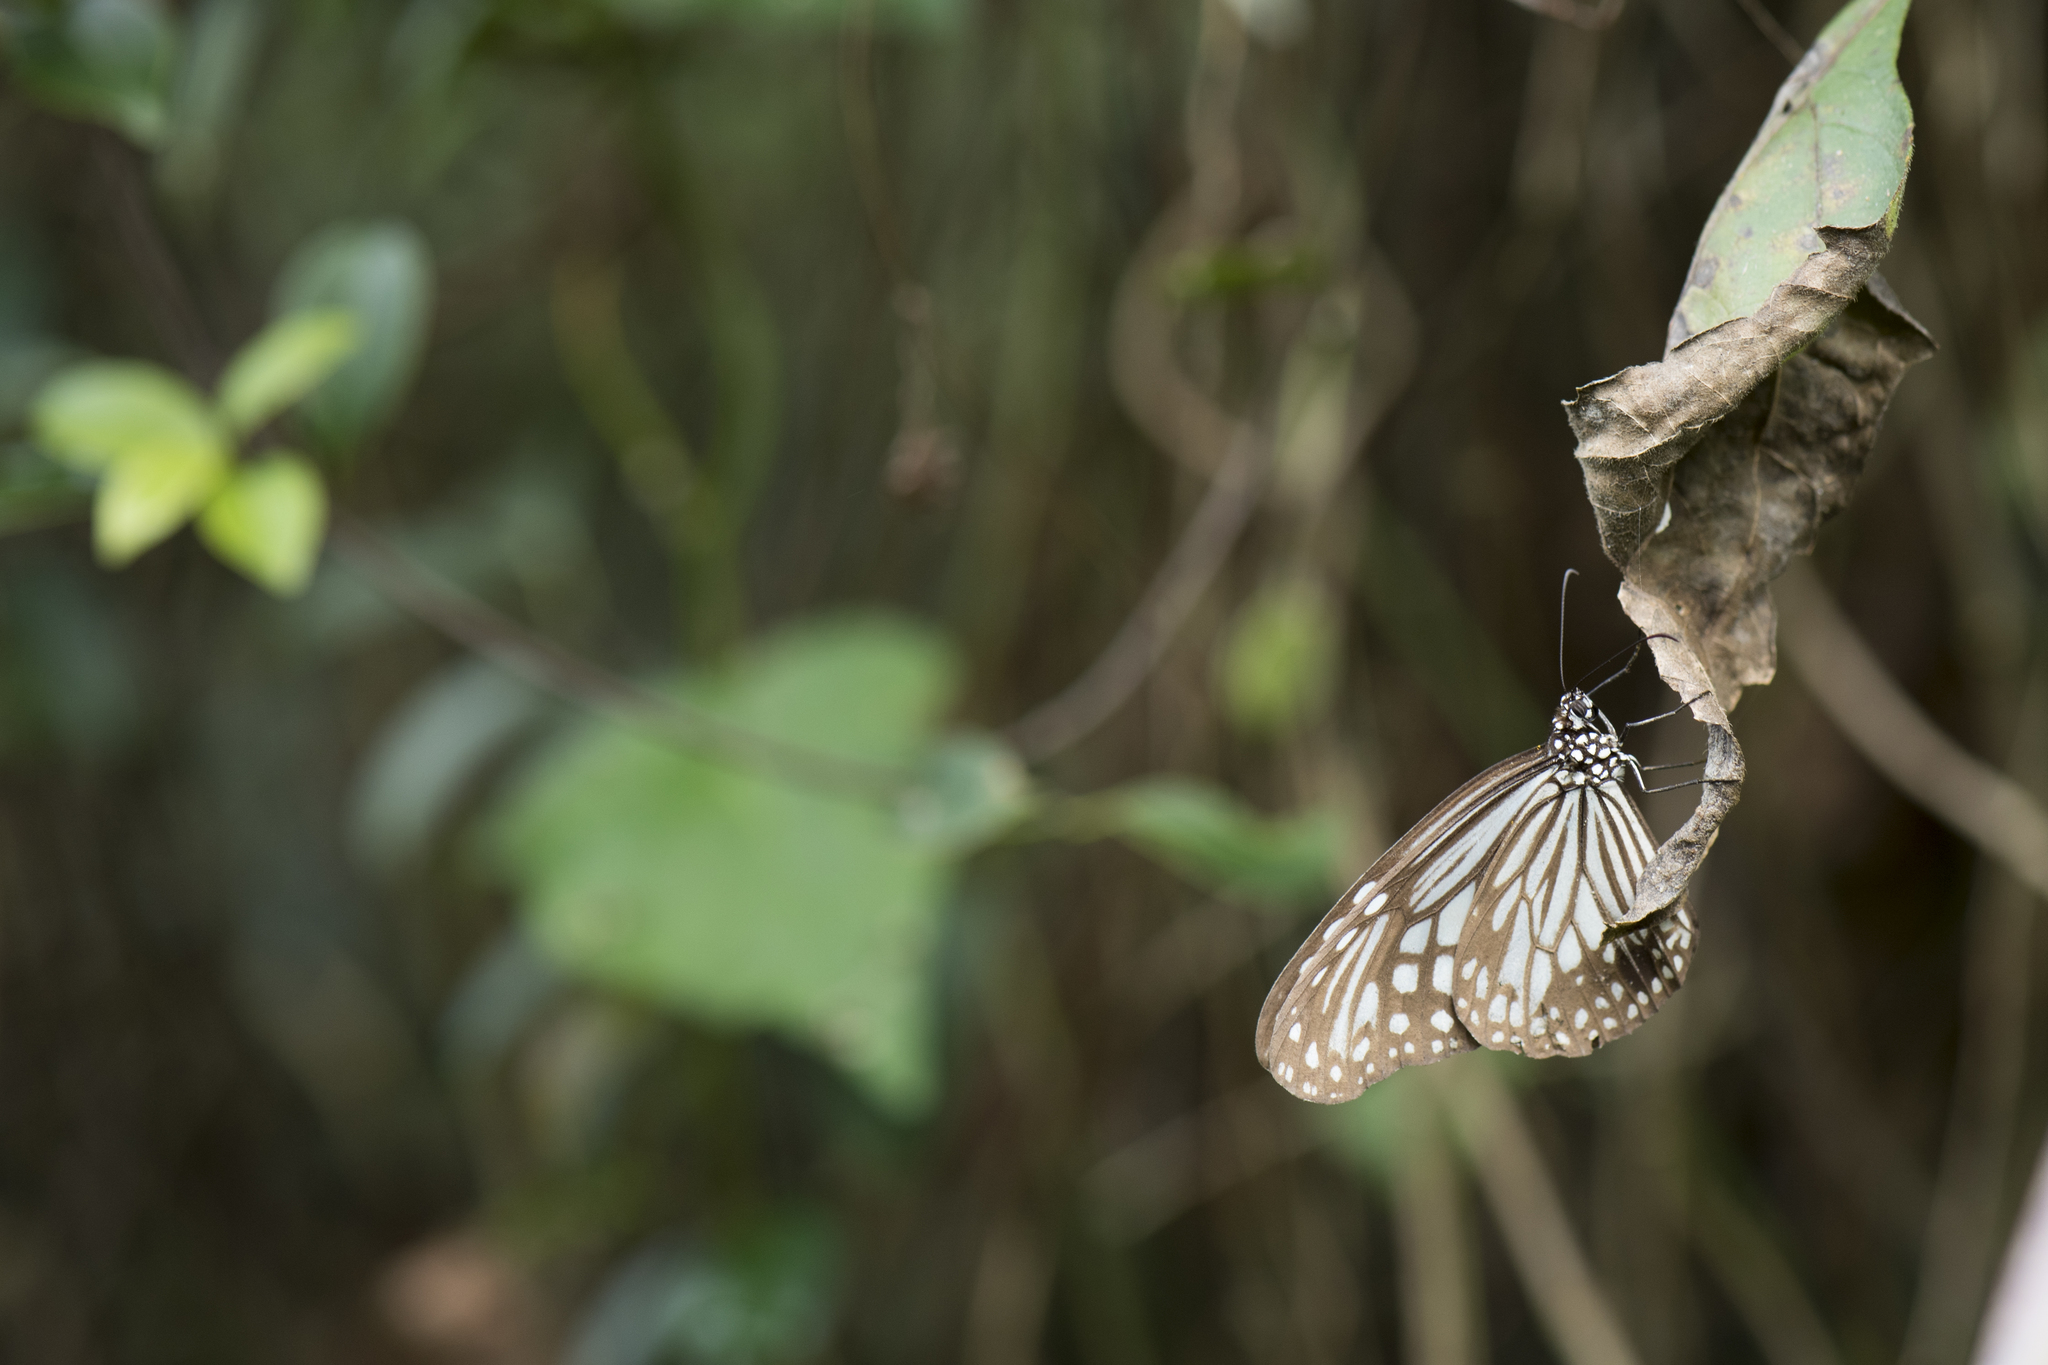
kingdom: Animalia
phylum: Arthropoda
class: Insecta
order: Lepidoptera
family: Nymphalidae
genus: Parantica
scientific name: Parantica aglea
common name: Glassy tiger
